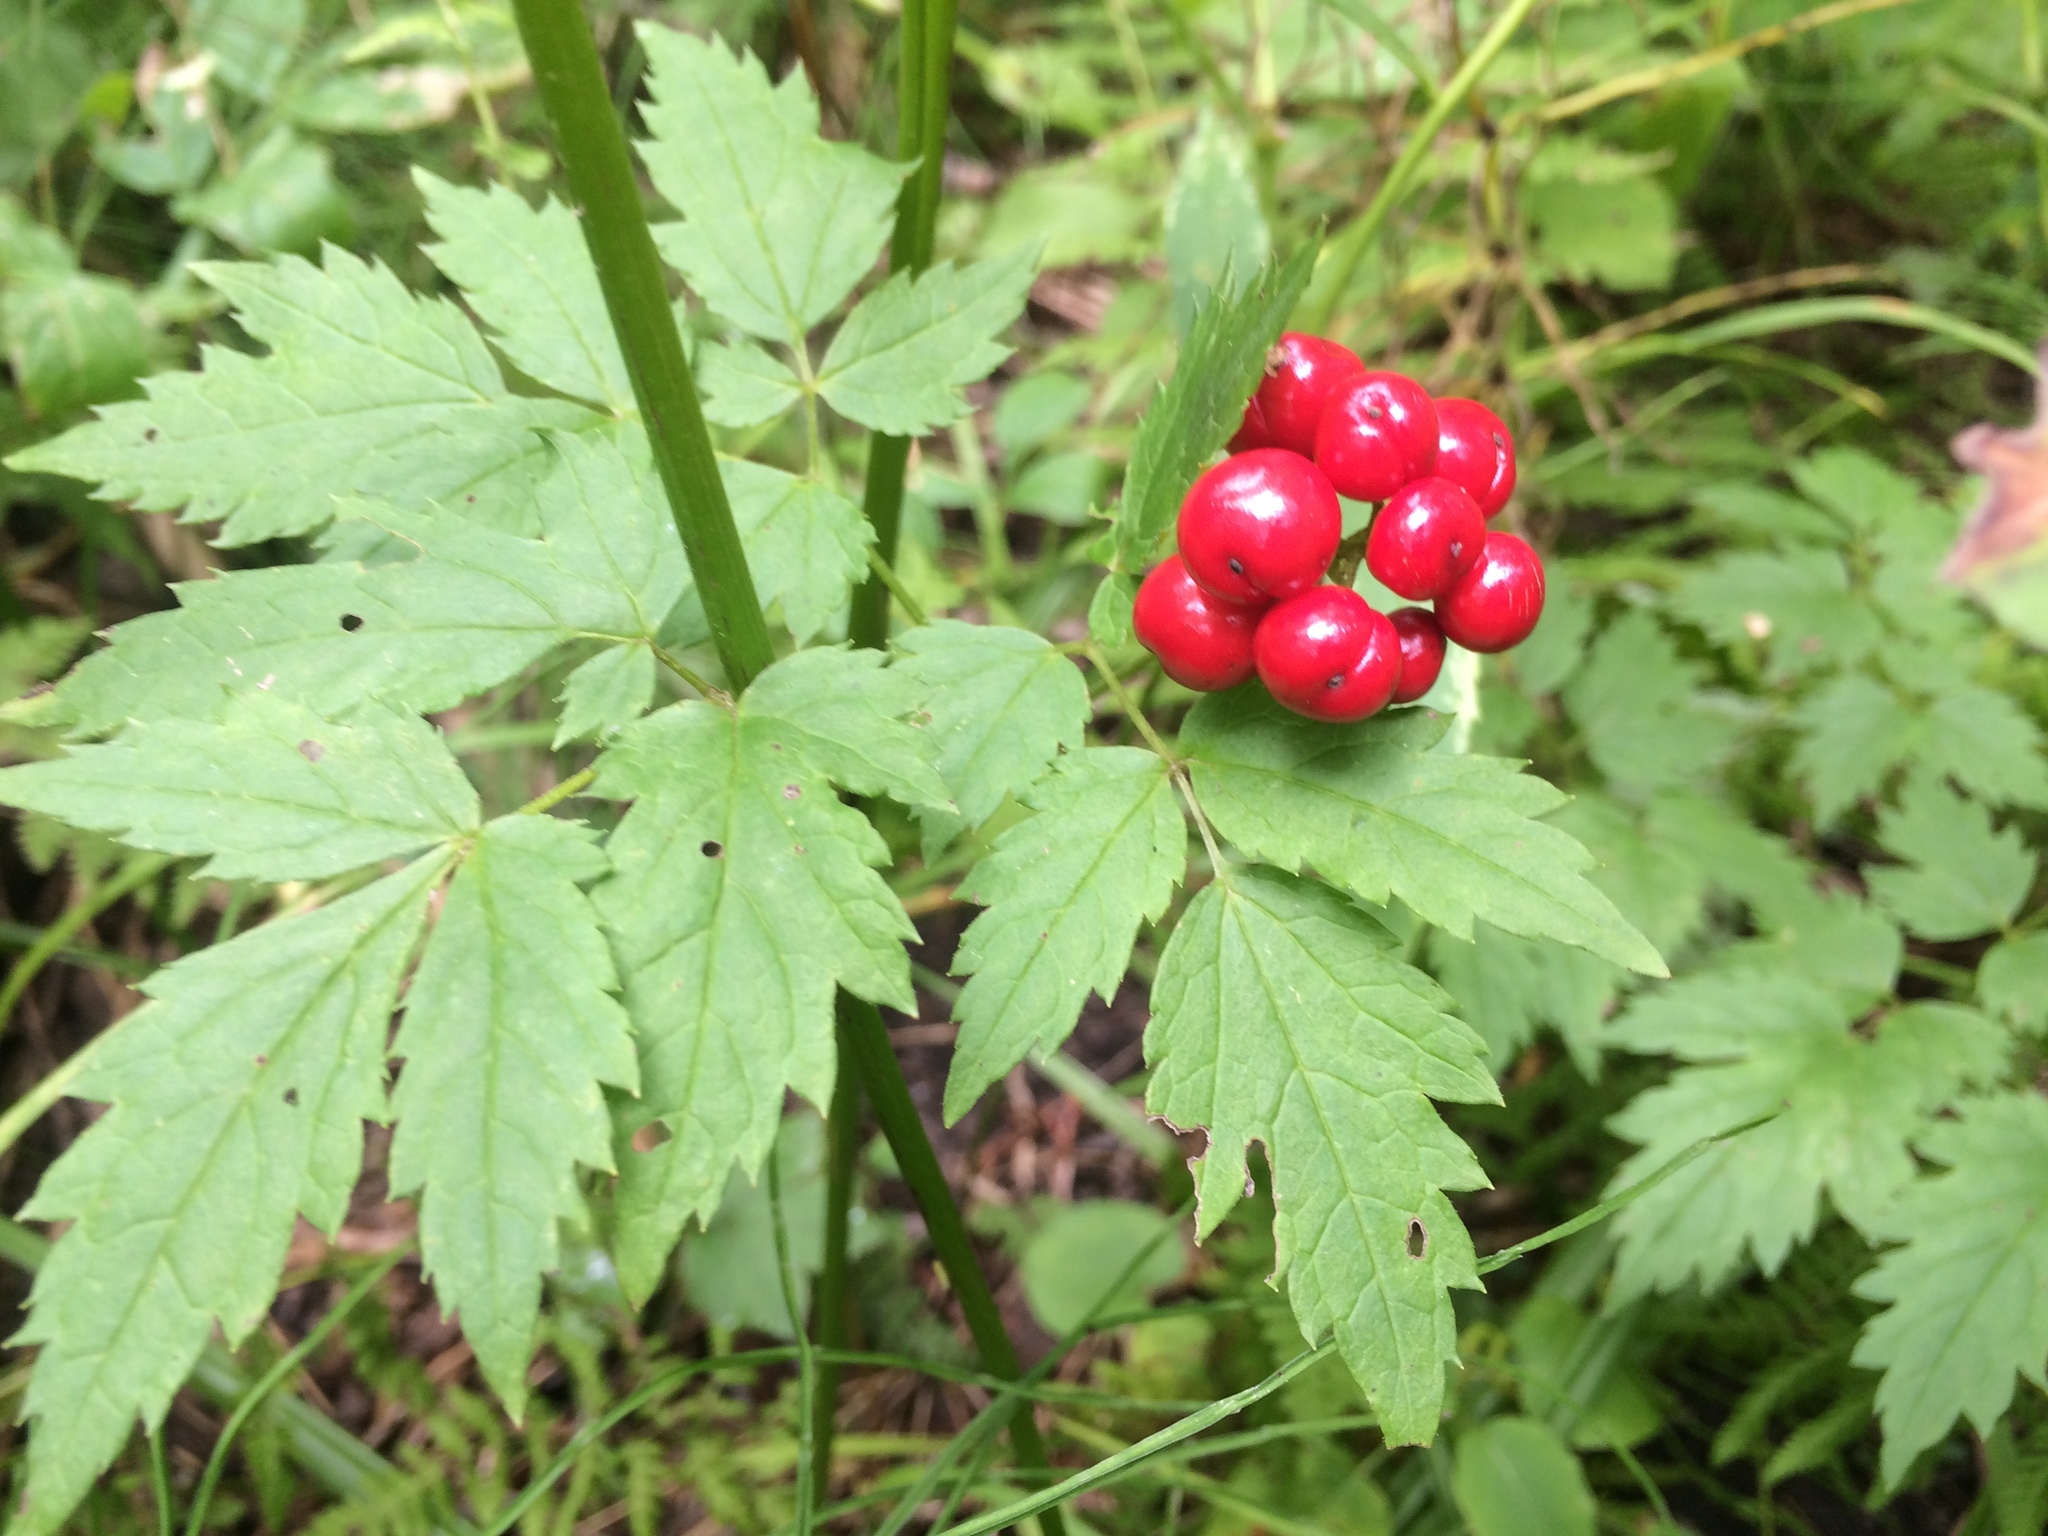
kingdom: Plantae
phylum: Tracheophyta
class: Magnoliopsida
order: Ranunculales
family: Ranunculaceae
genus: Actaea
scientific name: Actaea rubra
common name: Red baneberry
